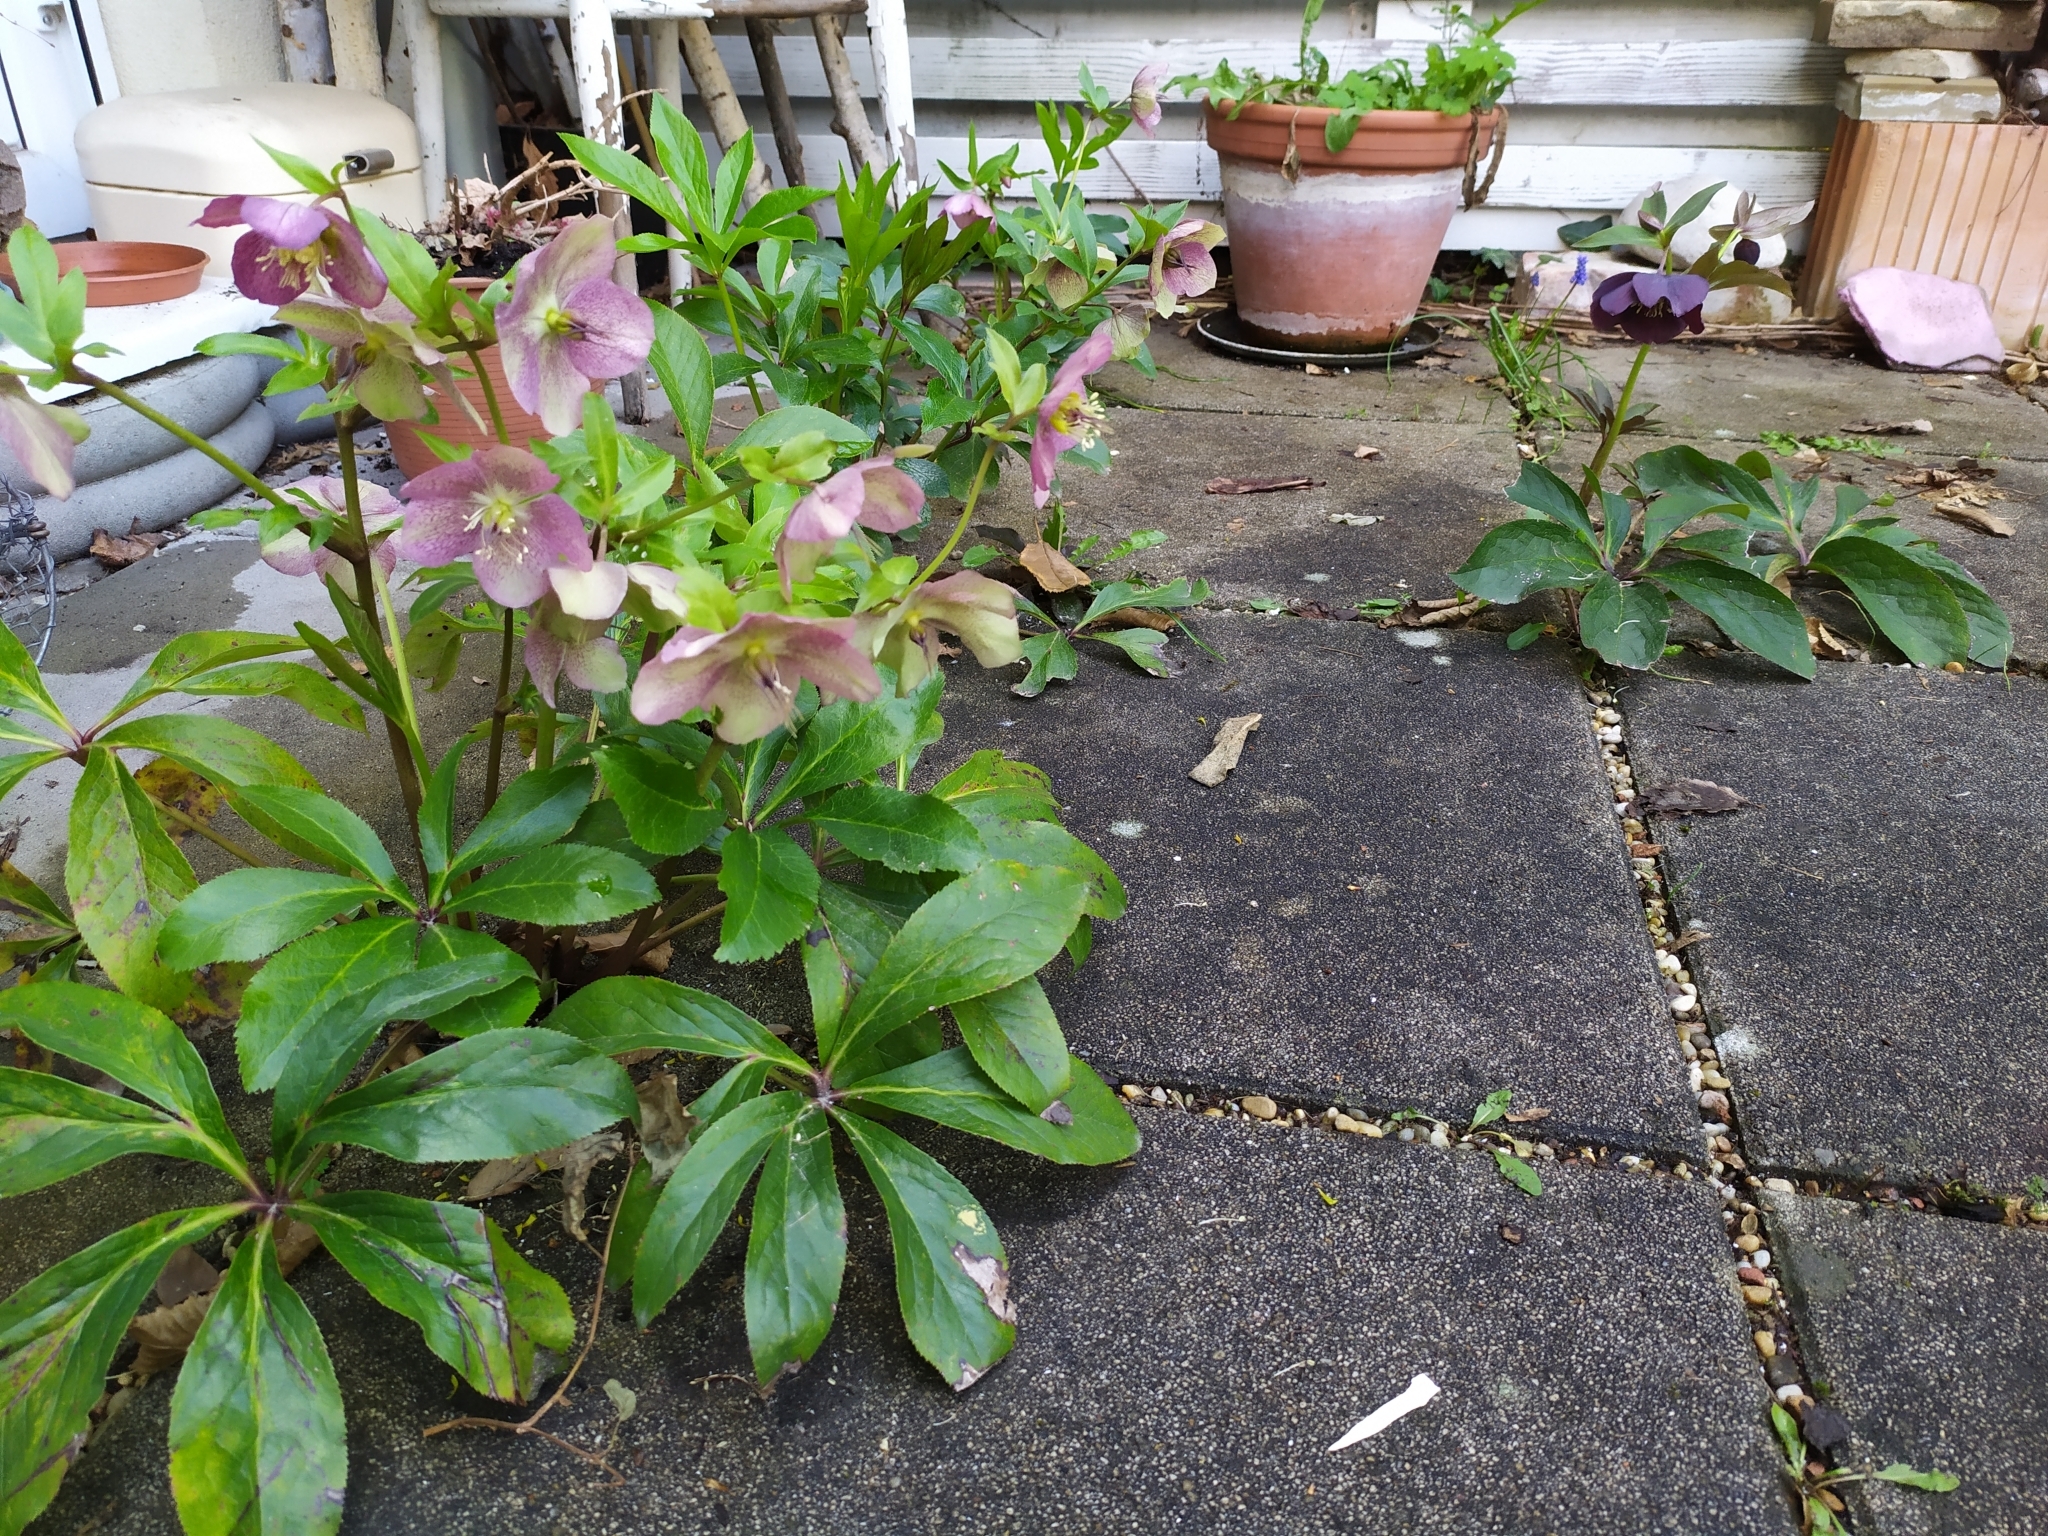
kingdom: Plantae
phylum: Tracheophyta
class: Magnoliopsida
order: Ranunculales
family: Ranunculaceae
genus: Helleborus
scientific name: Helleborus hybridus
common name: Hybrid lenten-rose
